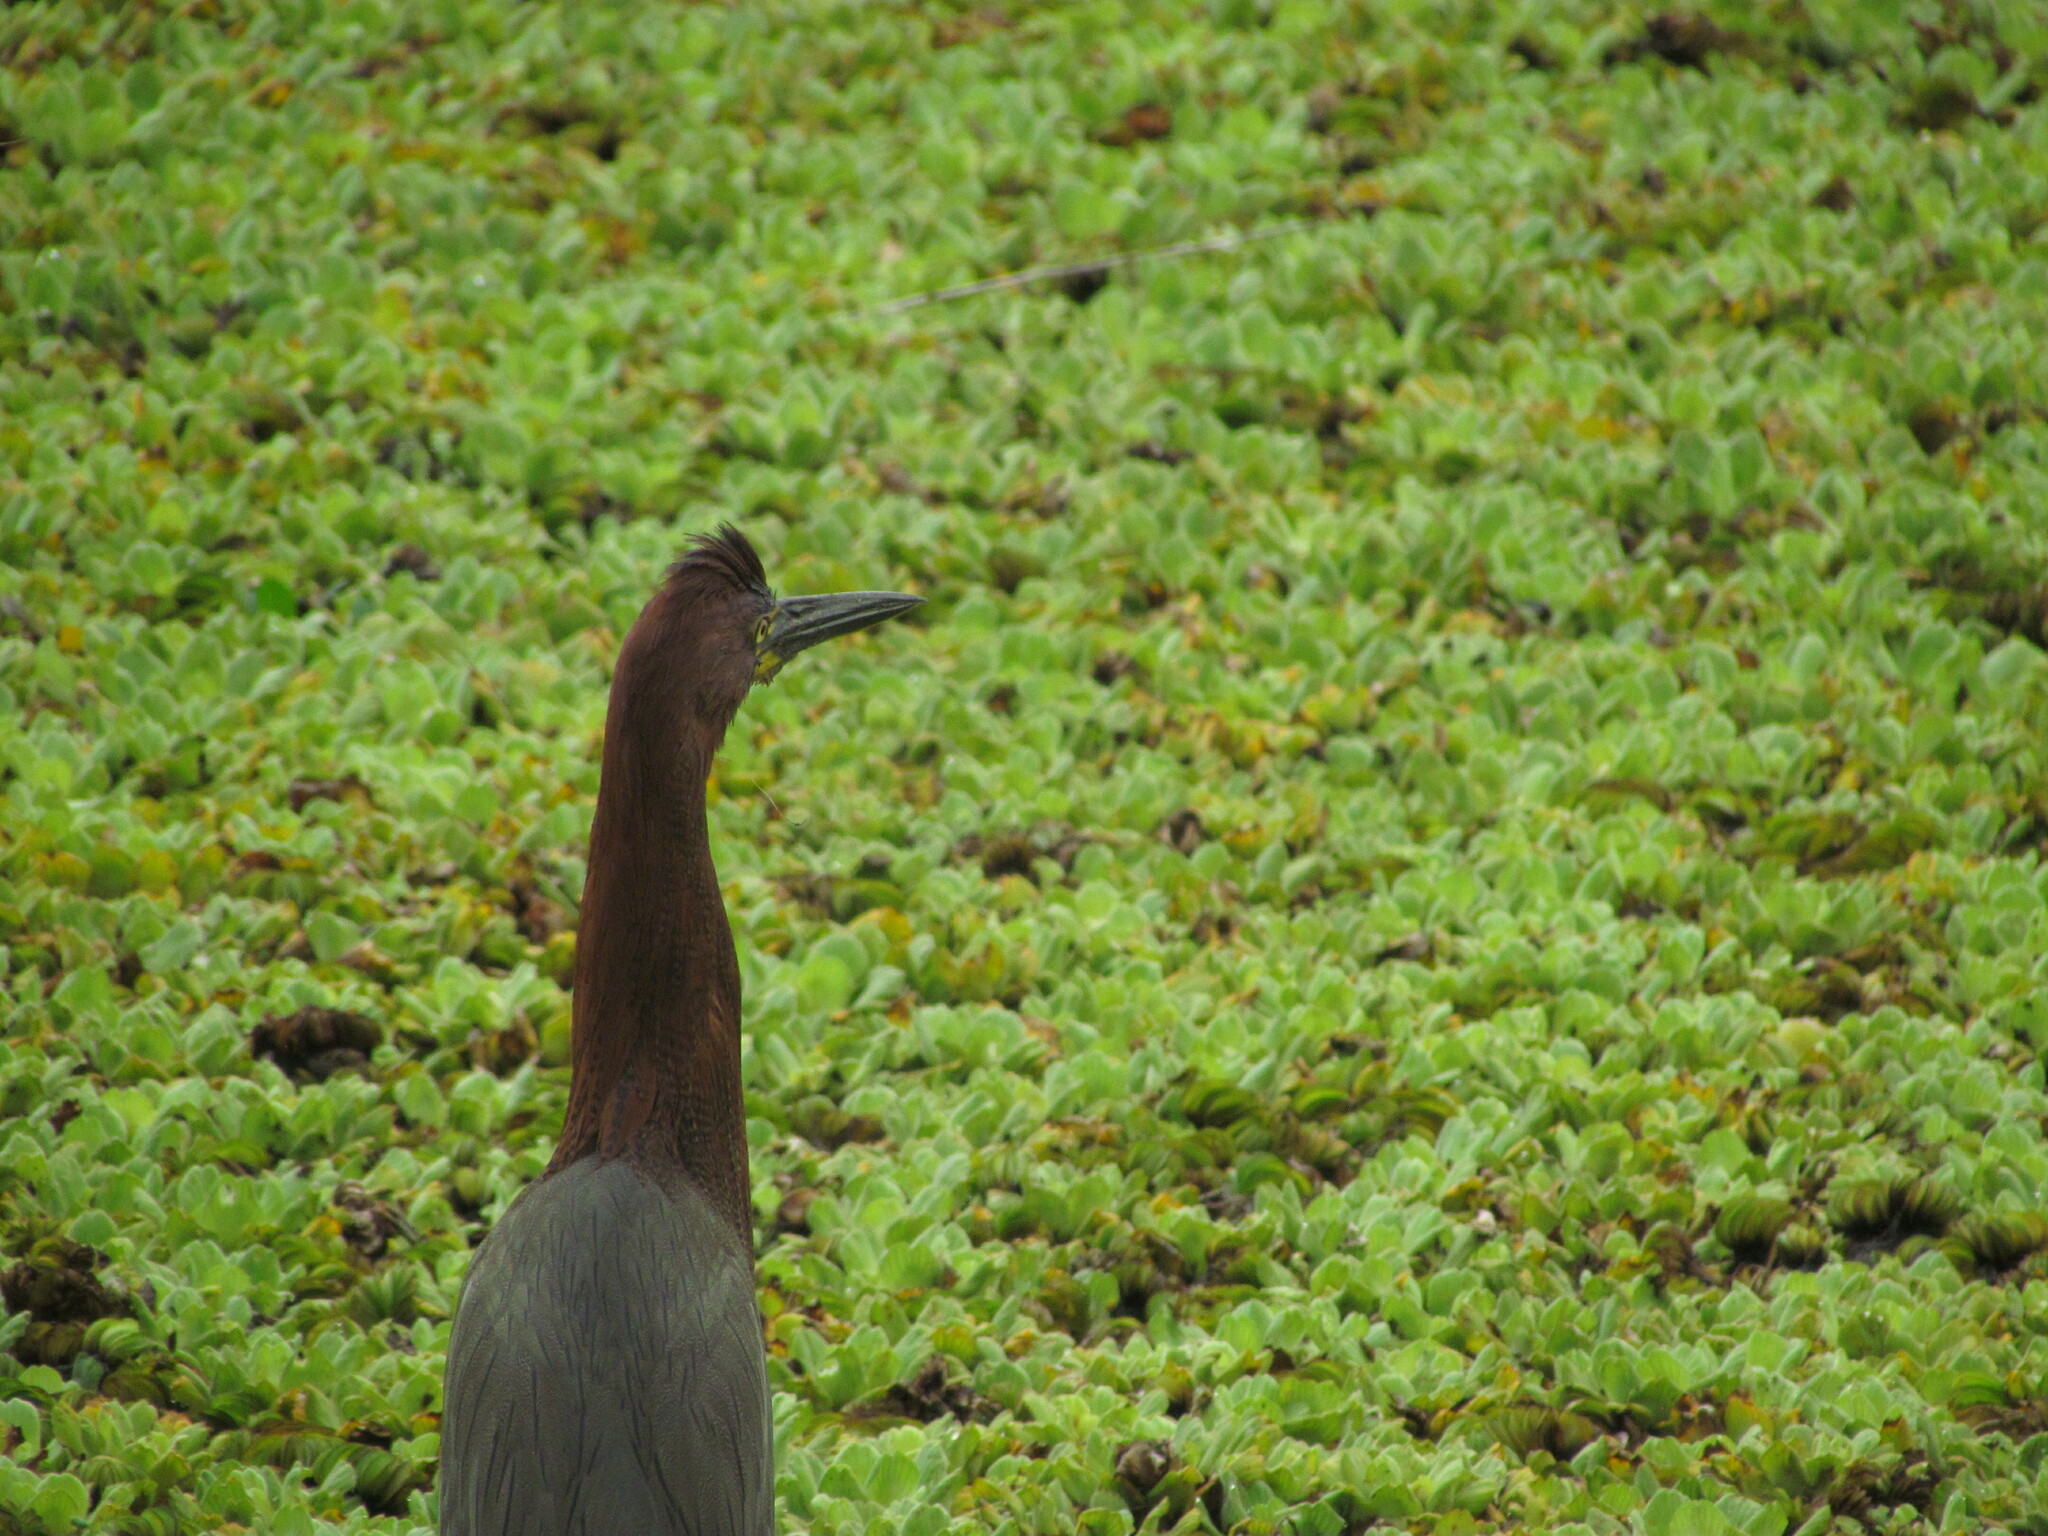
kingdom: Animalia
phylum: Chordata
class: Aves
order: Pelecaniformes
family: Ardeidae
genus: Tigrisoma
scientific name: Tigrisoma lineatum
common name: Rufescent tiger-heron
